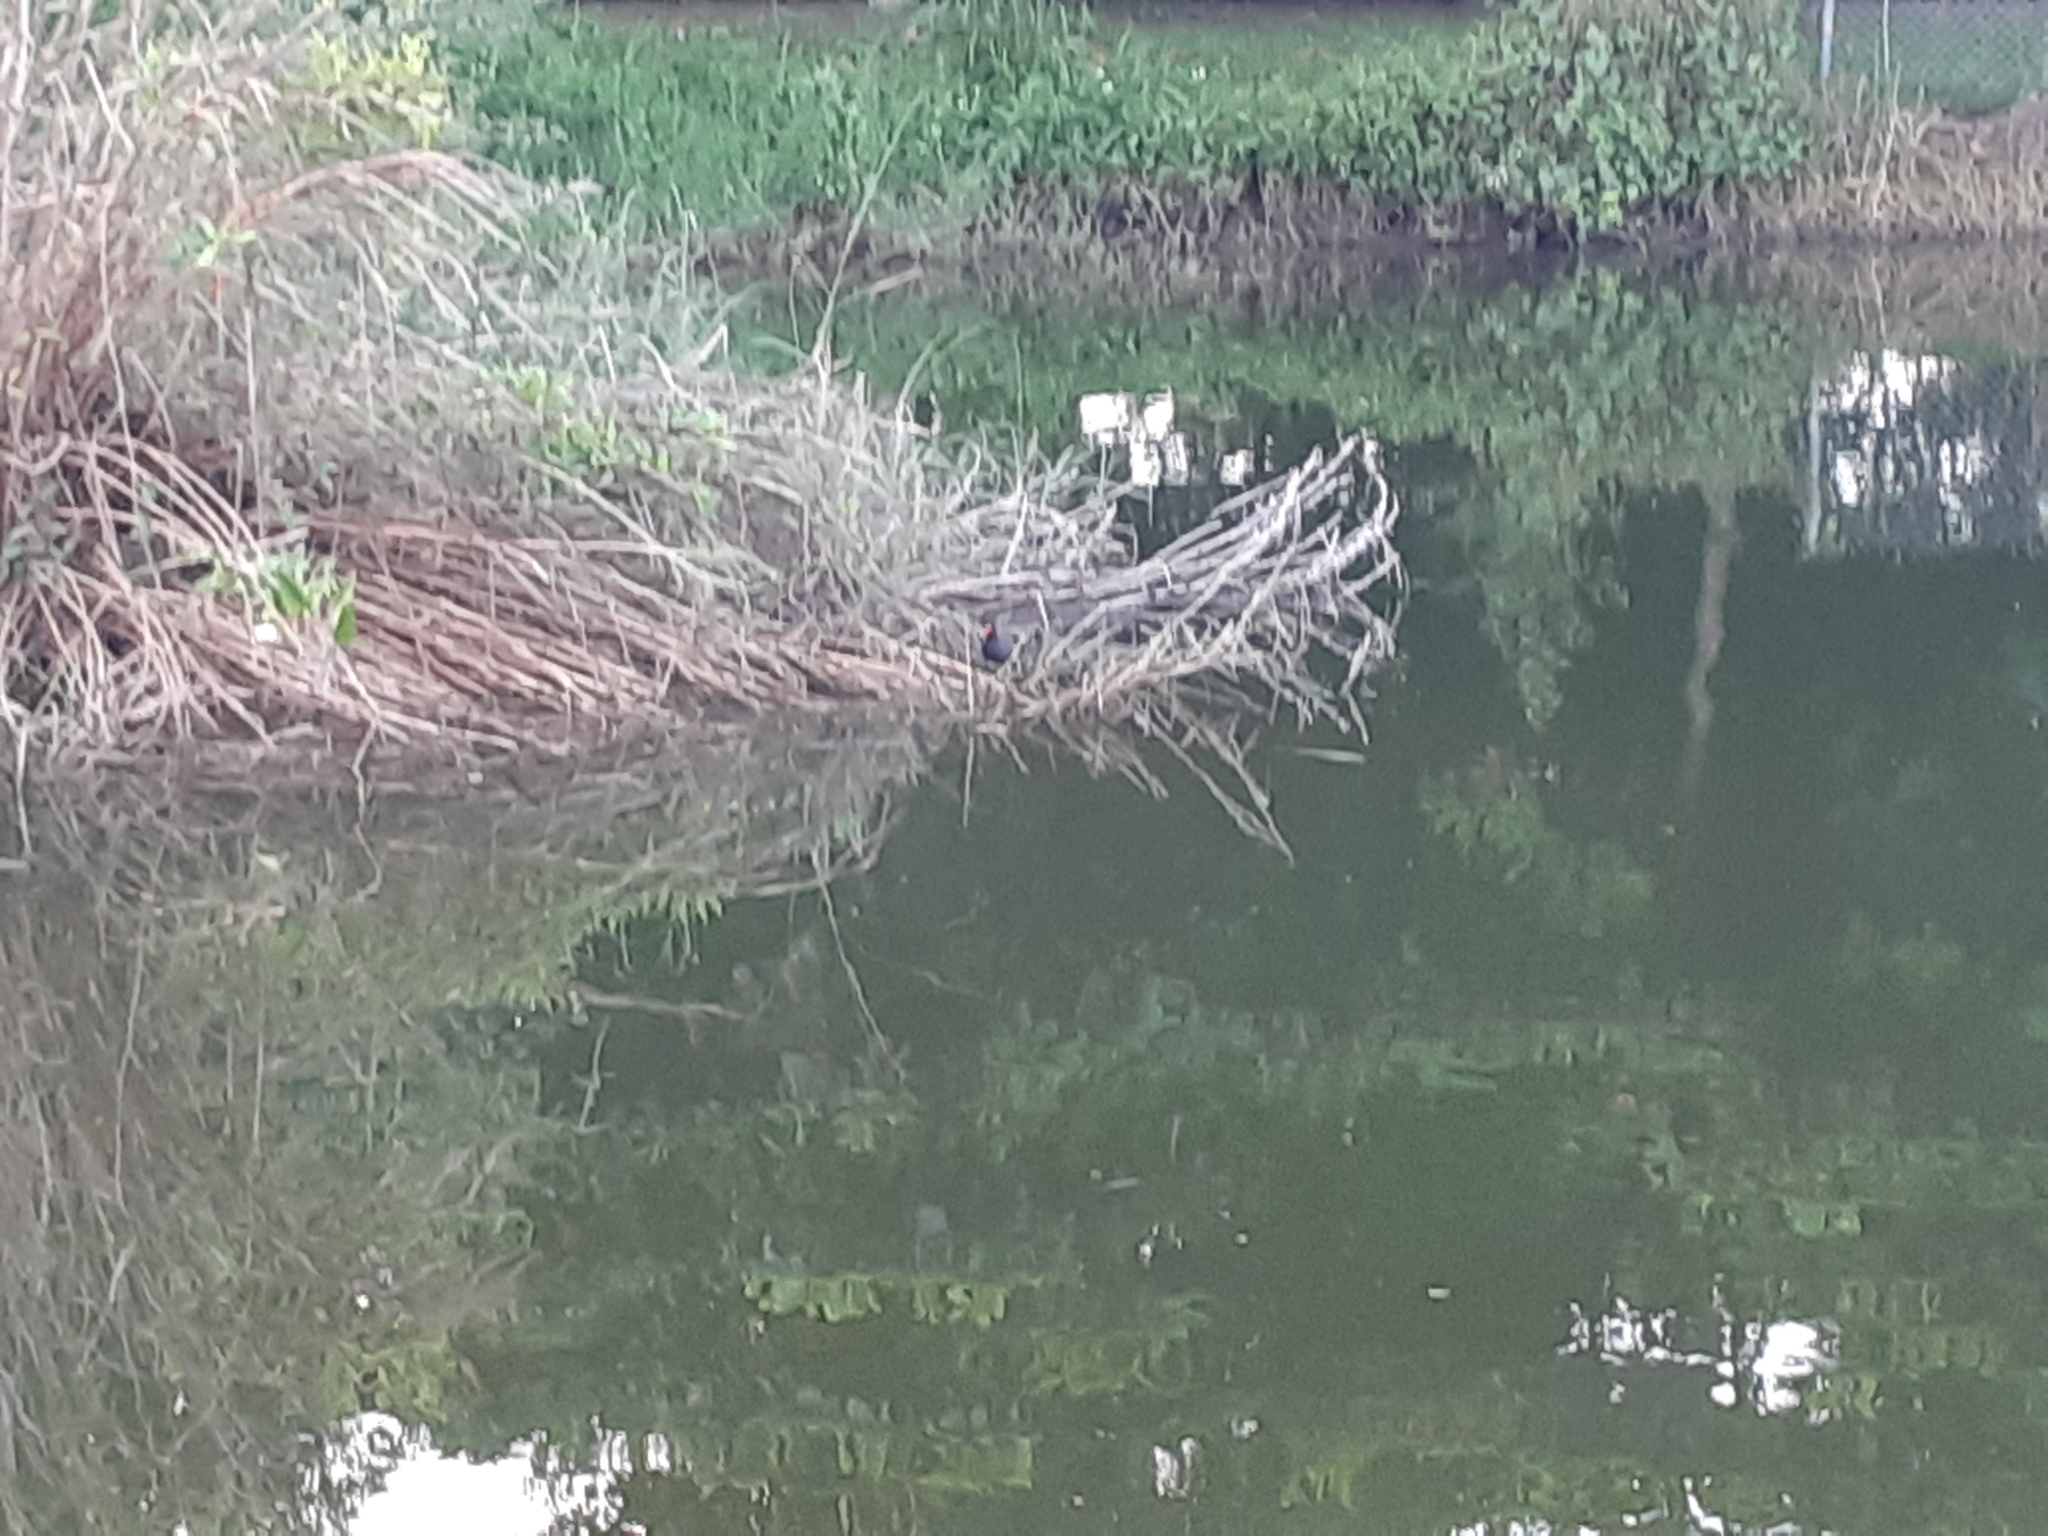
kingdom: Animalia
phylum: Chordata
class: Aves
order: Gruiformes
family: Rallidae
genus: Gallinula
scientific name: Gallinula chloropus
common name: Common moorhen
